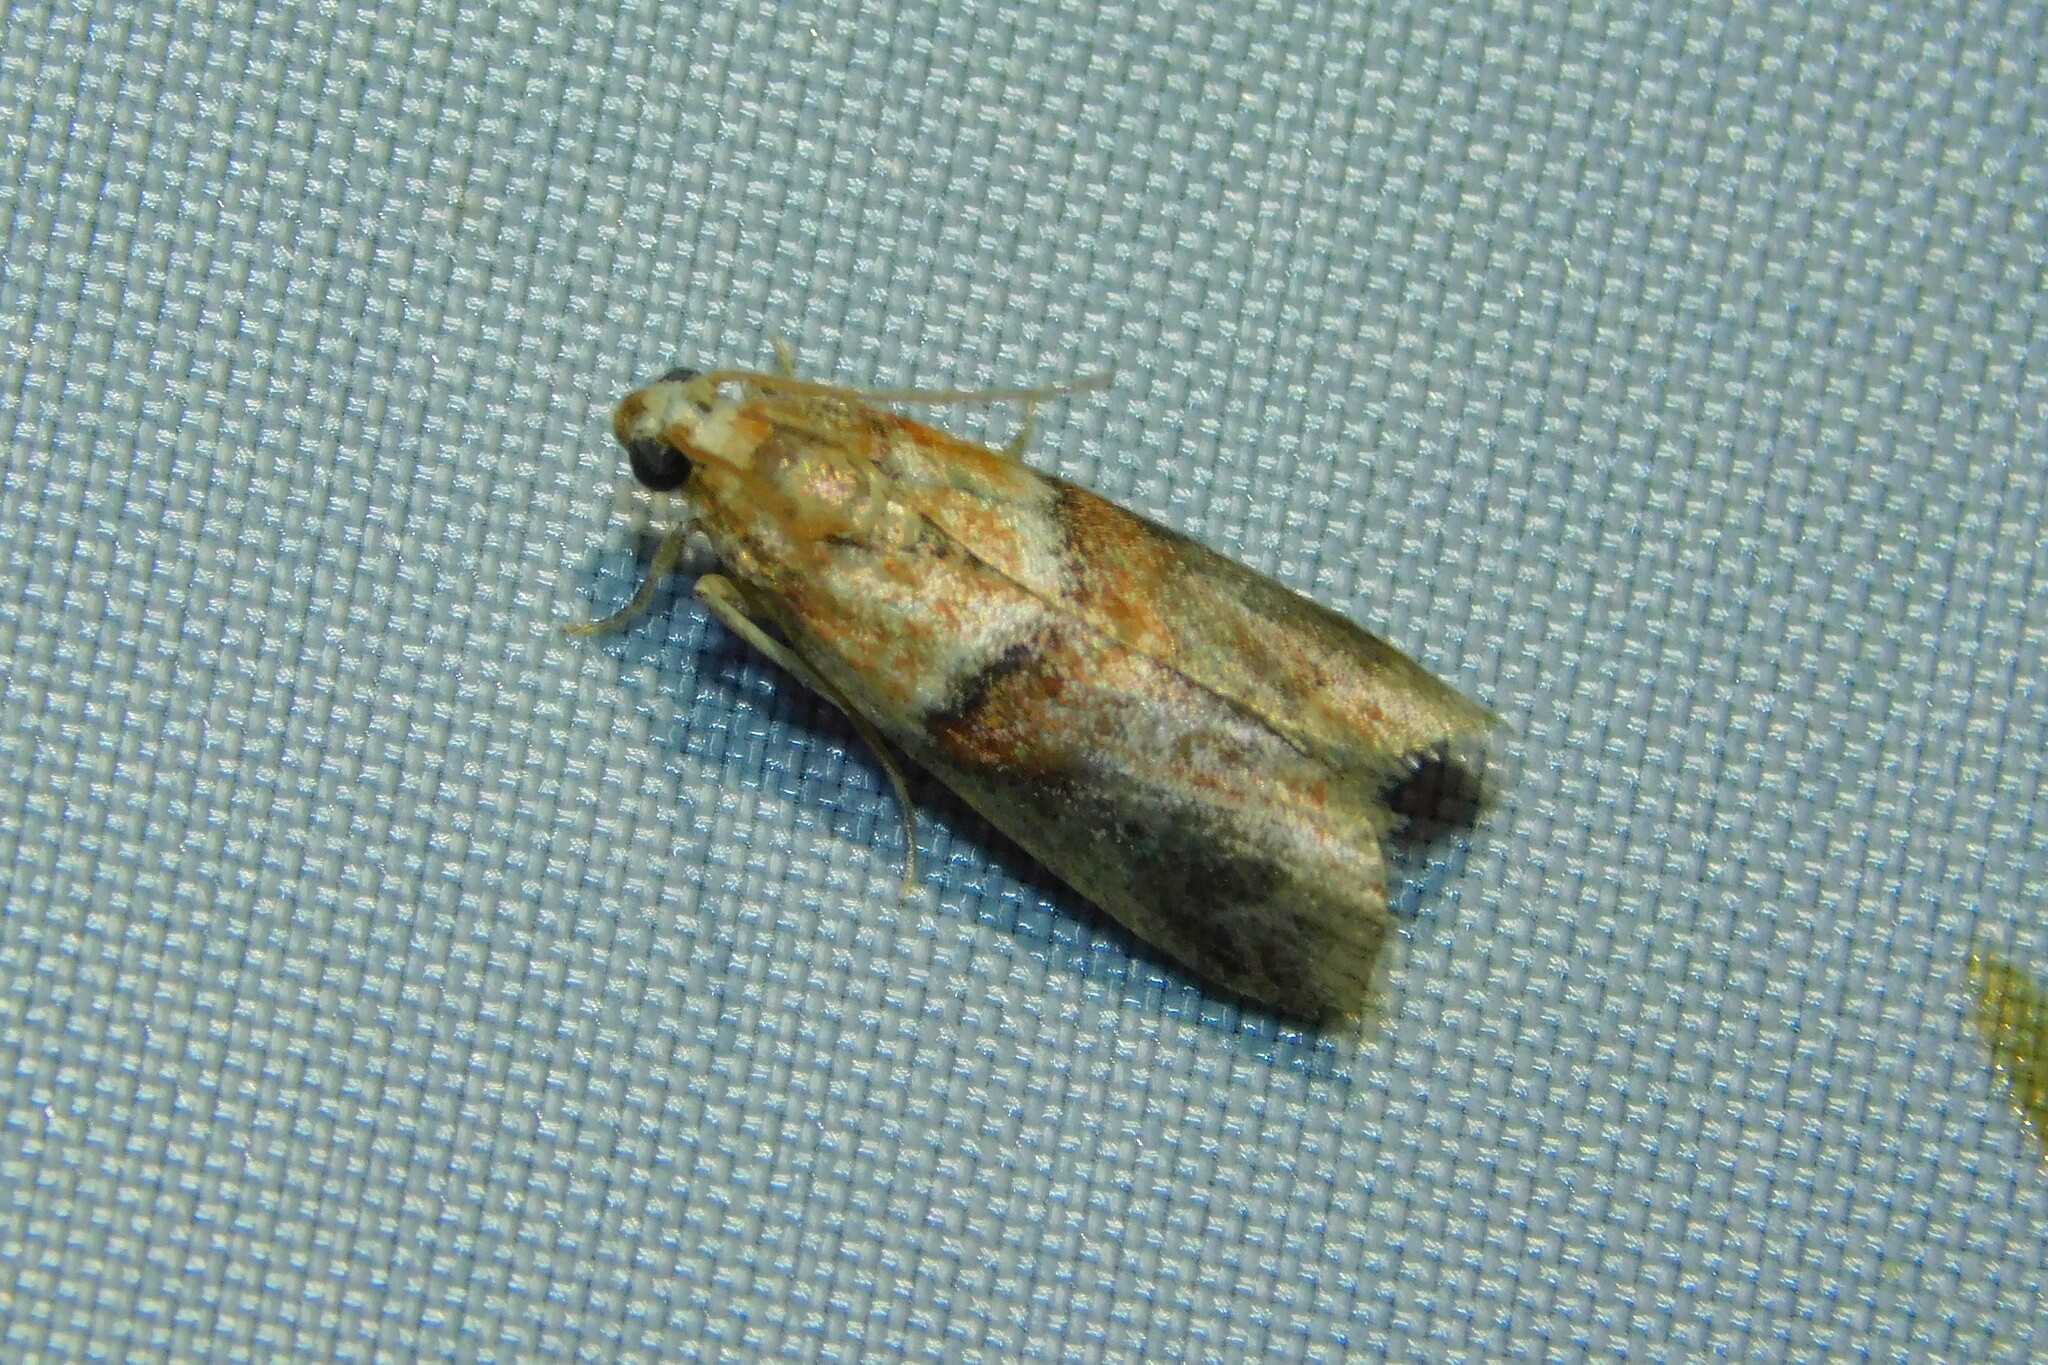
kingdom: Animalia
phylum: Arthropoda
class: Insecta
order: Lepidoptera
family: Pyralidae
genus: Acrobasis
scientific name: Acrobasis repandana
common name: Warted knot-horn
